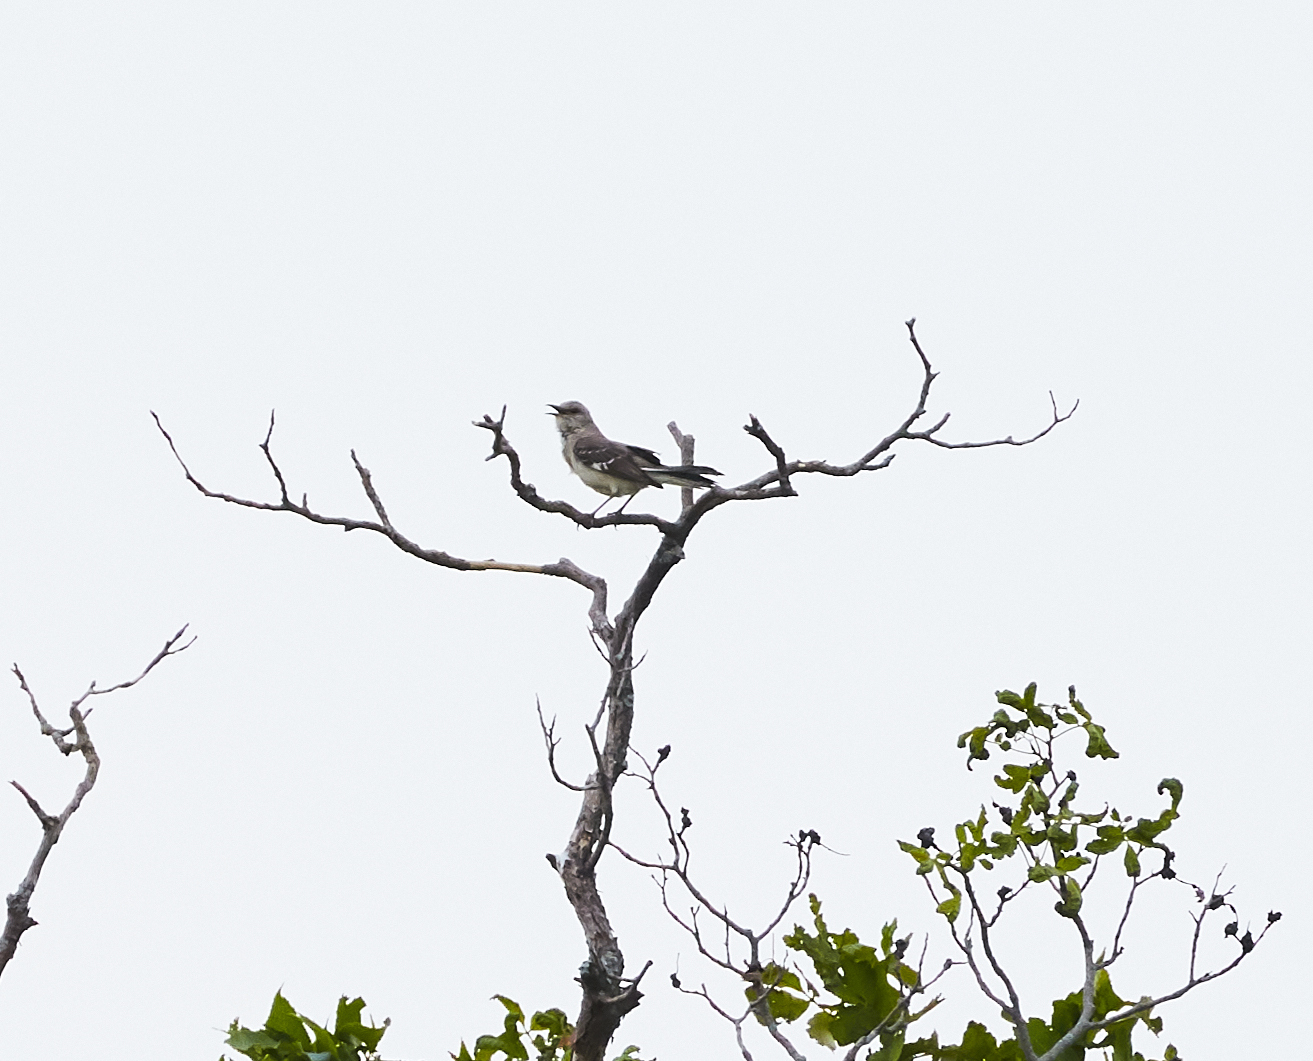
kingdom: Animalia
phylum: Chordata
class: Aves
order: Passeriformes
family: Mimidae
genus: Mimus
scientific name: Mimus polyglottos
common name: Northern mockingbird
